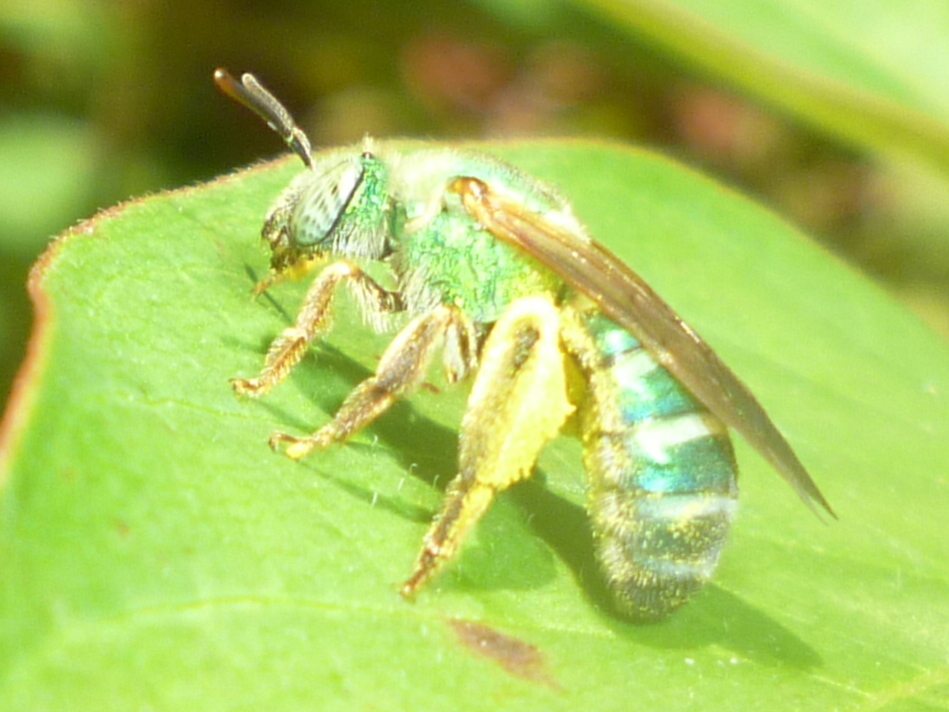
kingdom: Animalia
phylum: Arthropoda
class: Insecta
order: Hymenoptera
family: Halictidae
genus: Agapostemon
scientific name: Agapostemon splendens
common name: Brown-winged striped sweat bee
